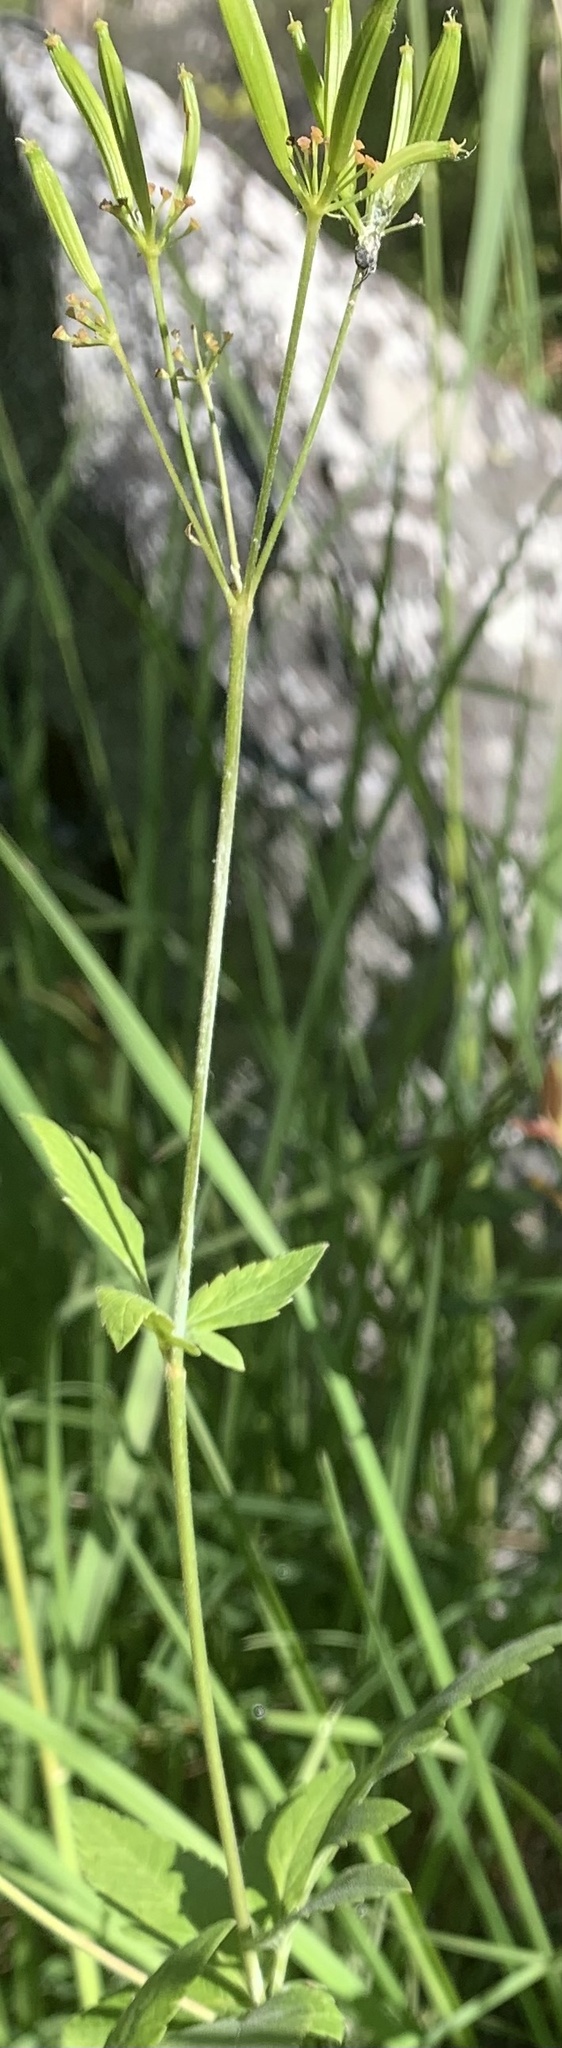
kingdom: Plantae
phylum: Tracheophyta
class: Magnoliopsida
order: Apiales
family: Apiaceae
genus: Osmorhiza
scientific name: Osmorhiza occidentalis
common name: Western sweet cicely
